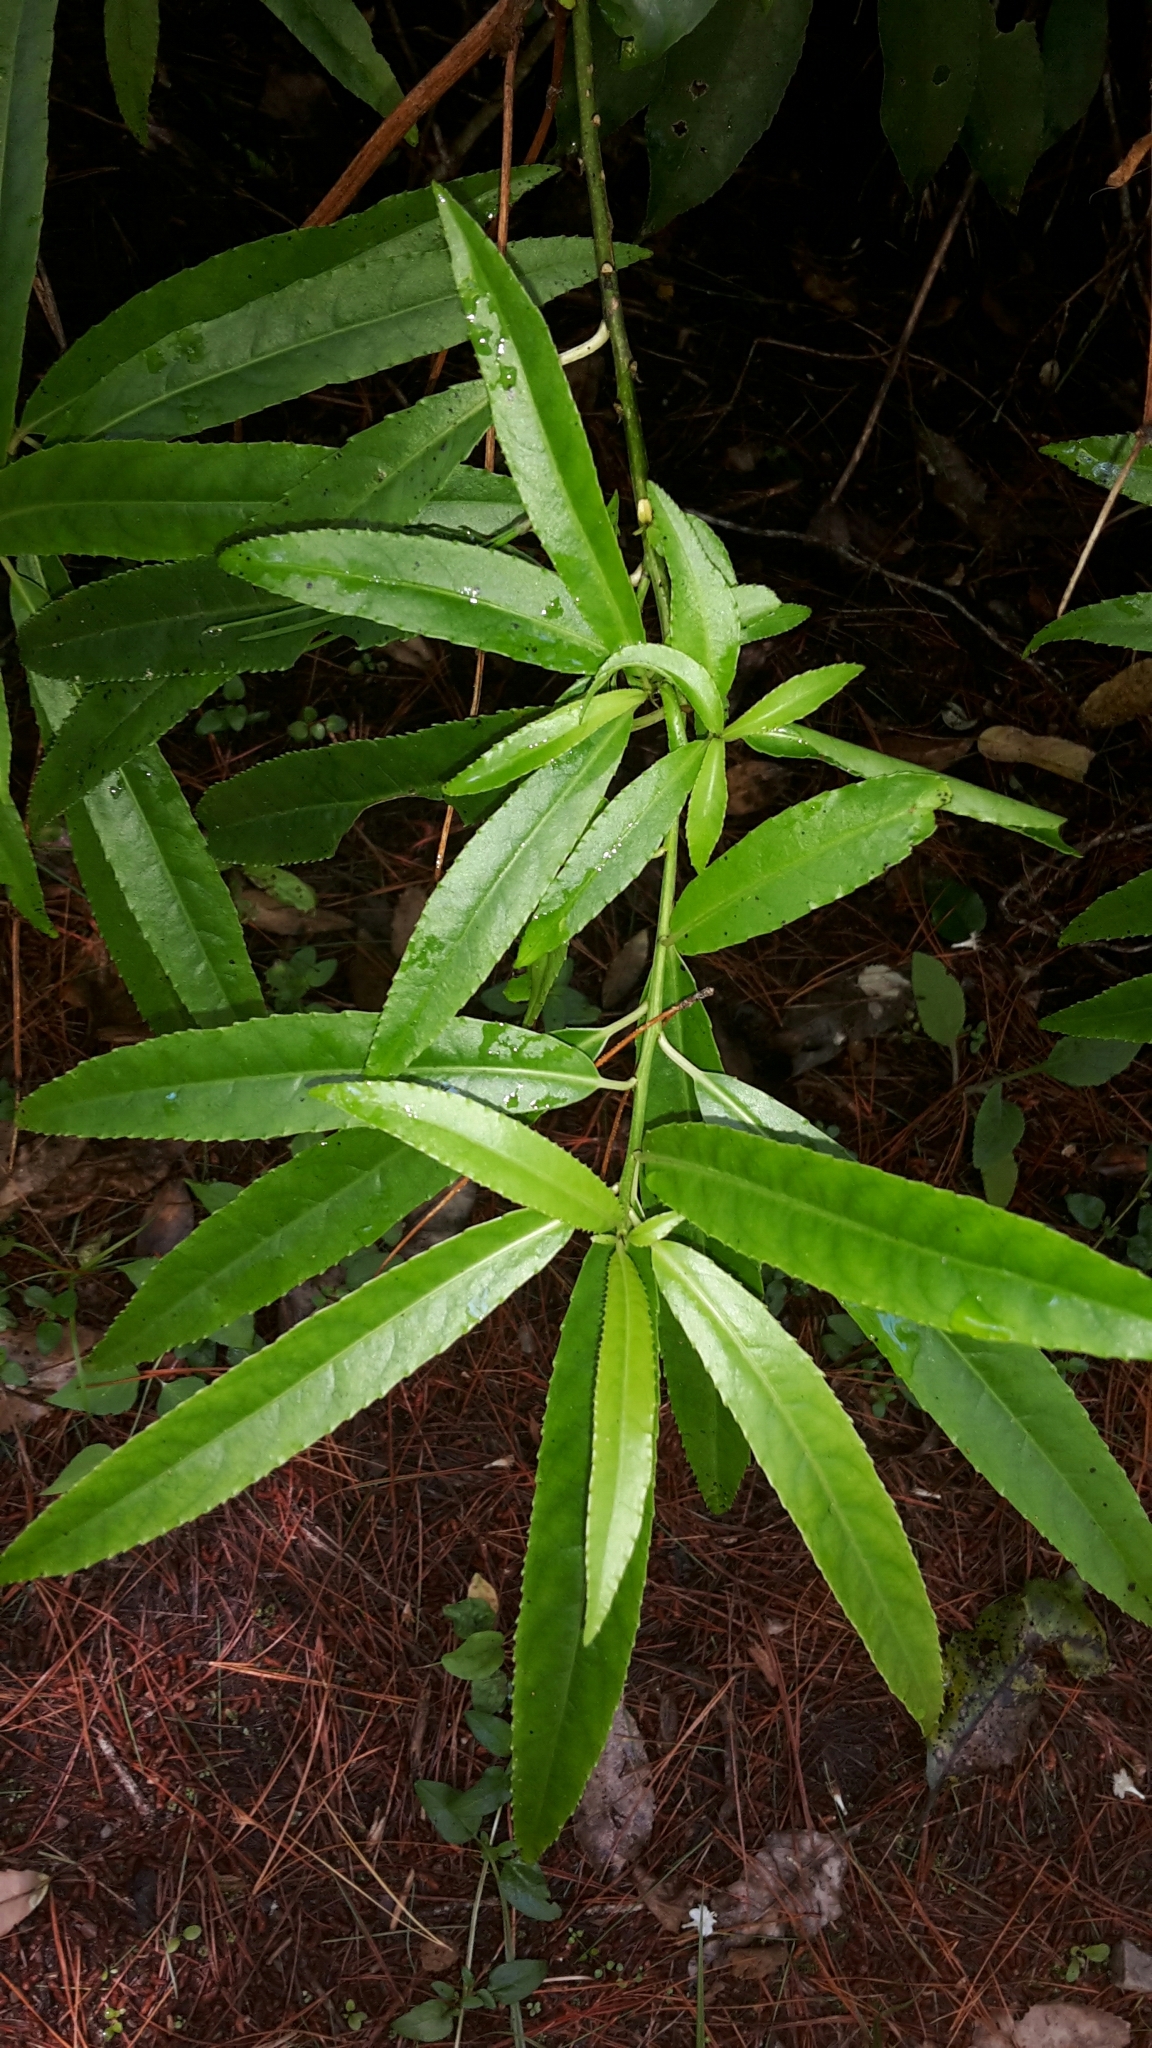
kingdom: Plantae
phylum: Tracheophyta
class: Magnoliopsida
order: Malpighiales
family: Violaceae
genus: Melicytus
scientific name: Melicytus lanceolatus
